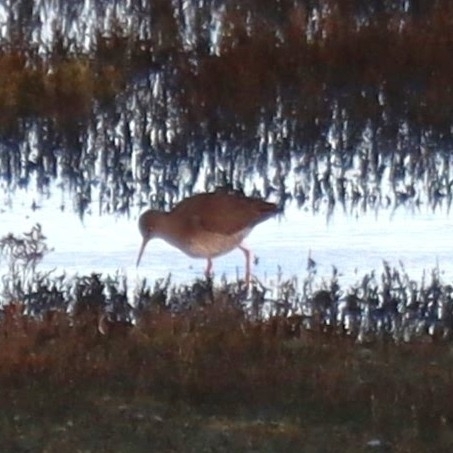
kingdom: Animalia
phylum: Chordata
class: Aves
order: Charadriiformes
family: Scolopacidae
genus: Tringa
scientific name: Tringa totanus
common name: Common redshank
